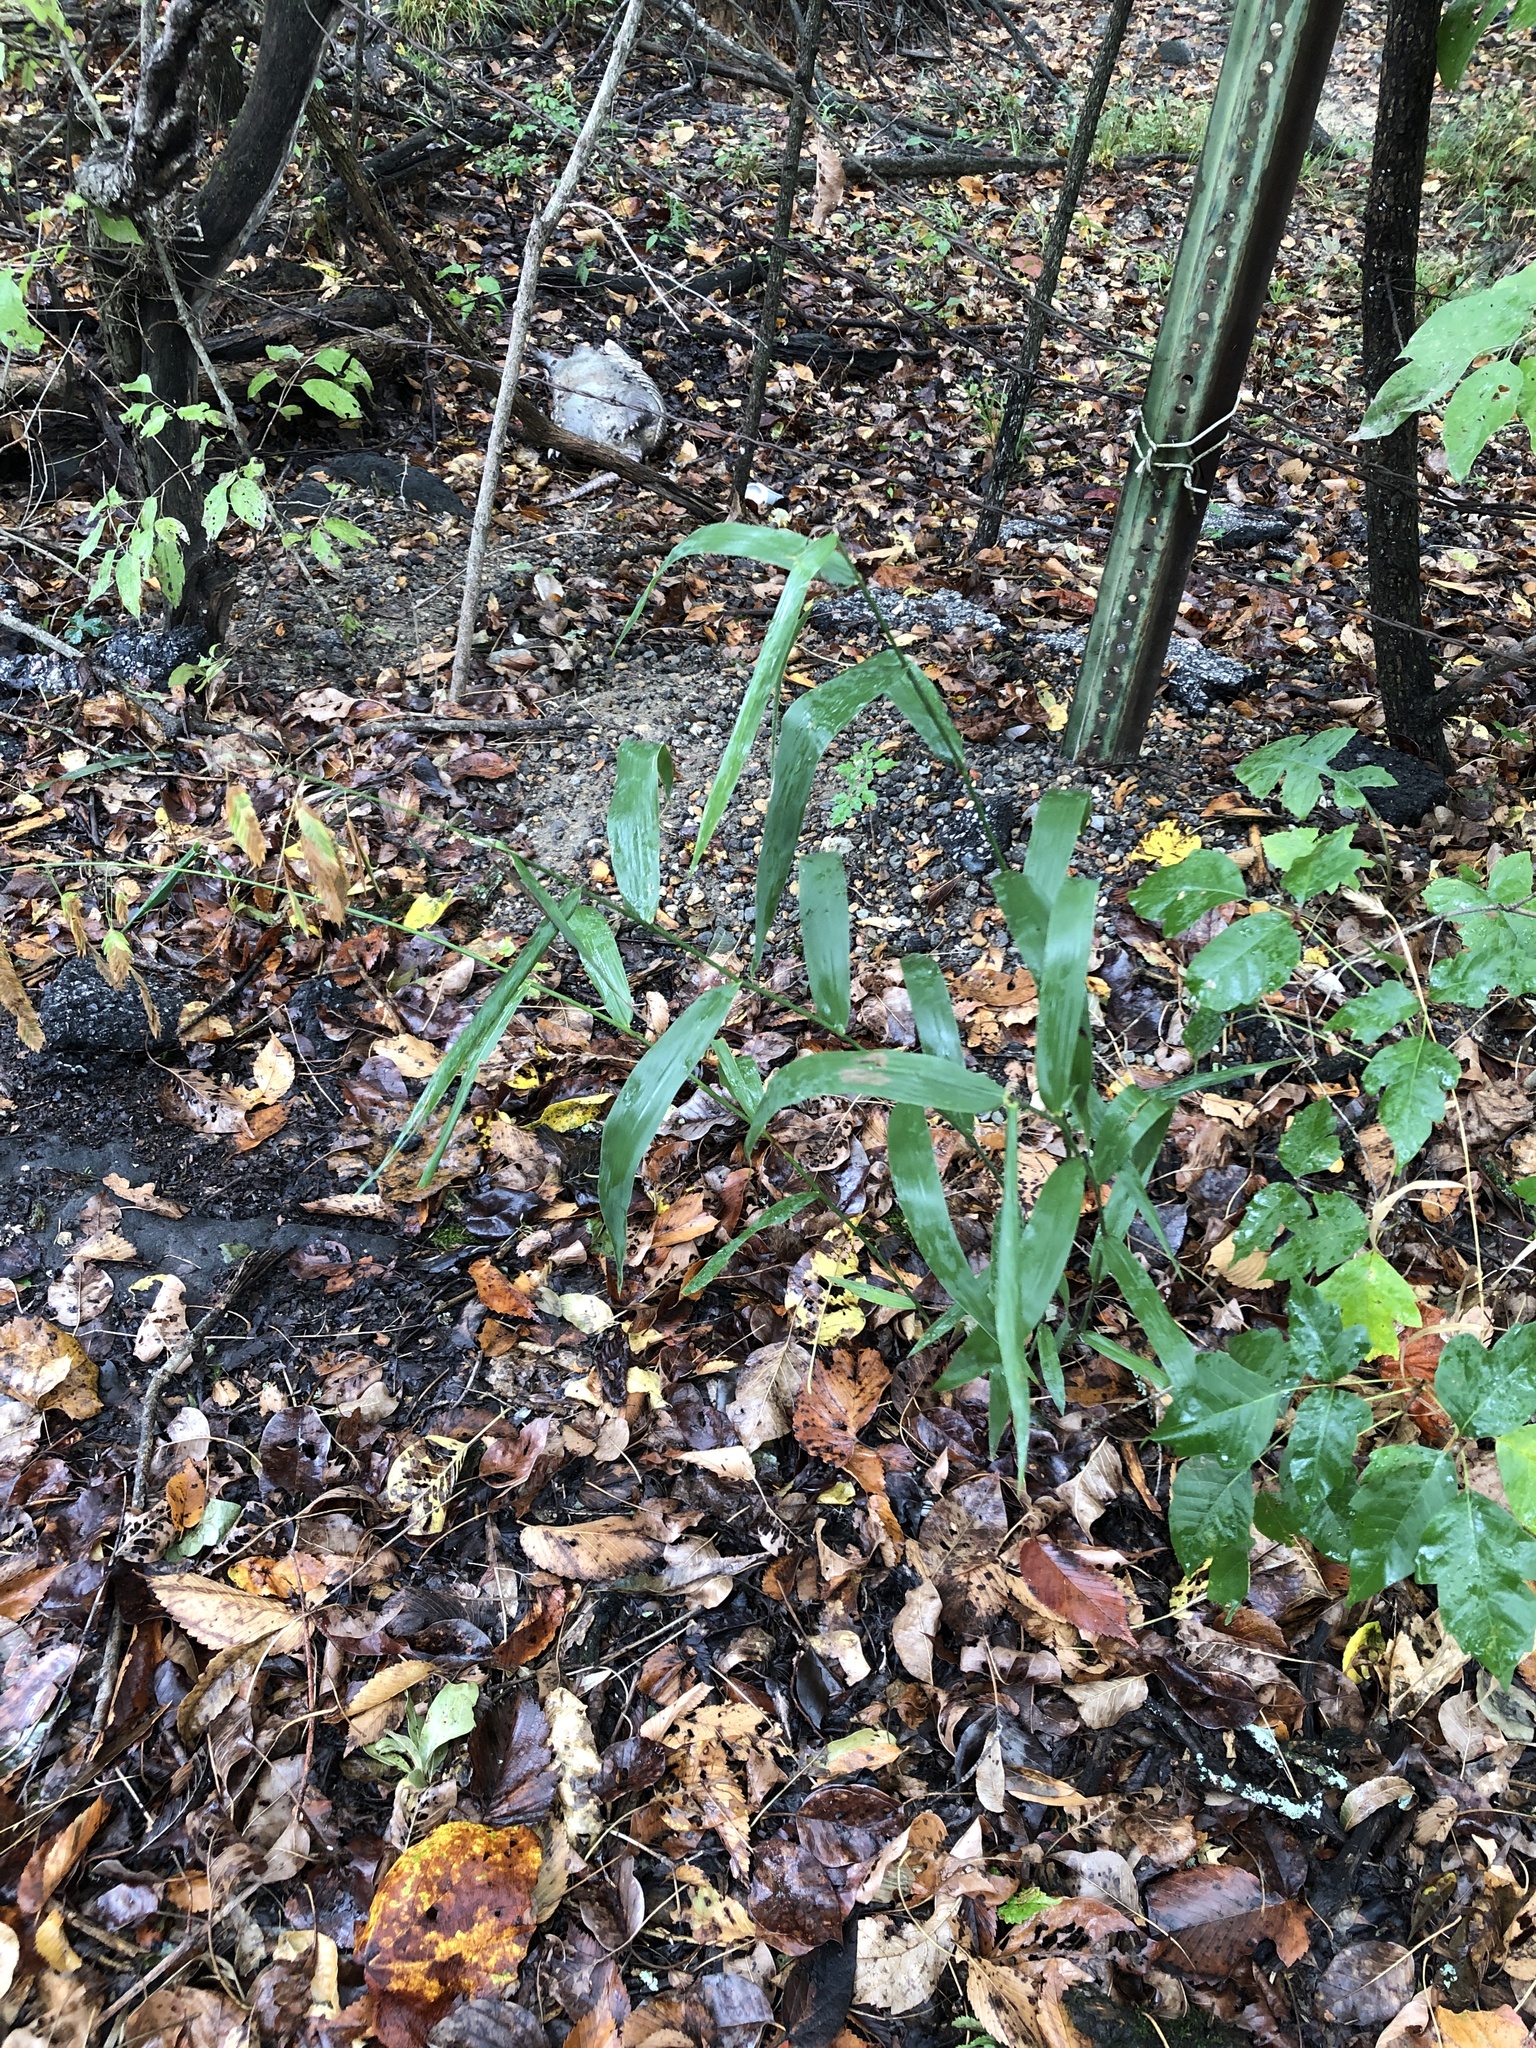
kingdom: Plantae
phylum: Tracheophyta
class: Liliopsida
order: Poales
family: Poaceae
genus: Chasmanthium
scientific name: Chasmanthium latifolium
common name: Broad-leaved chasmanthium
